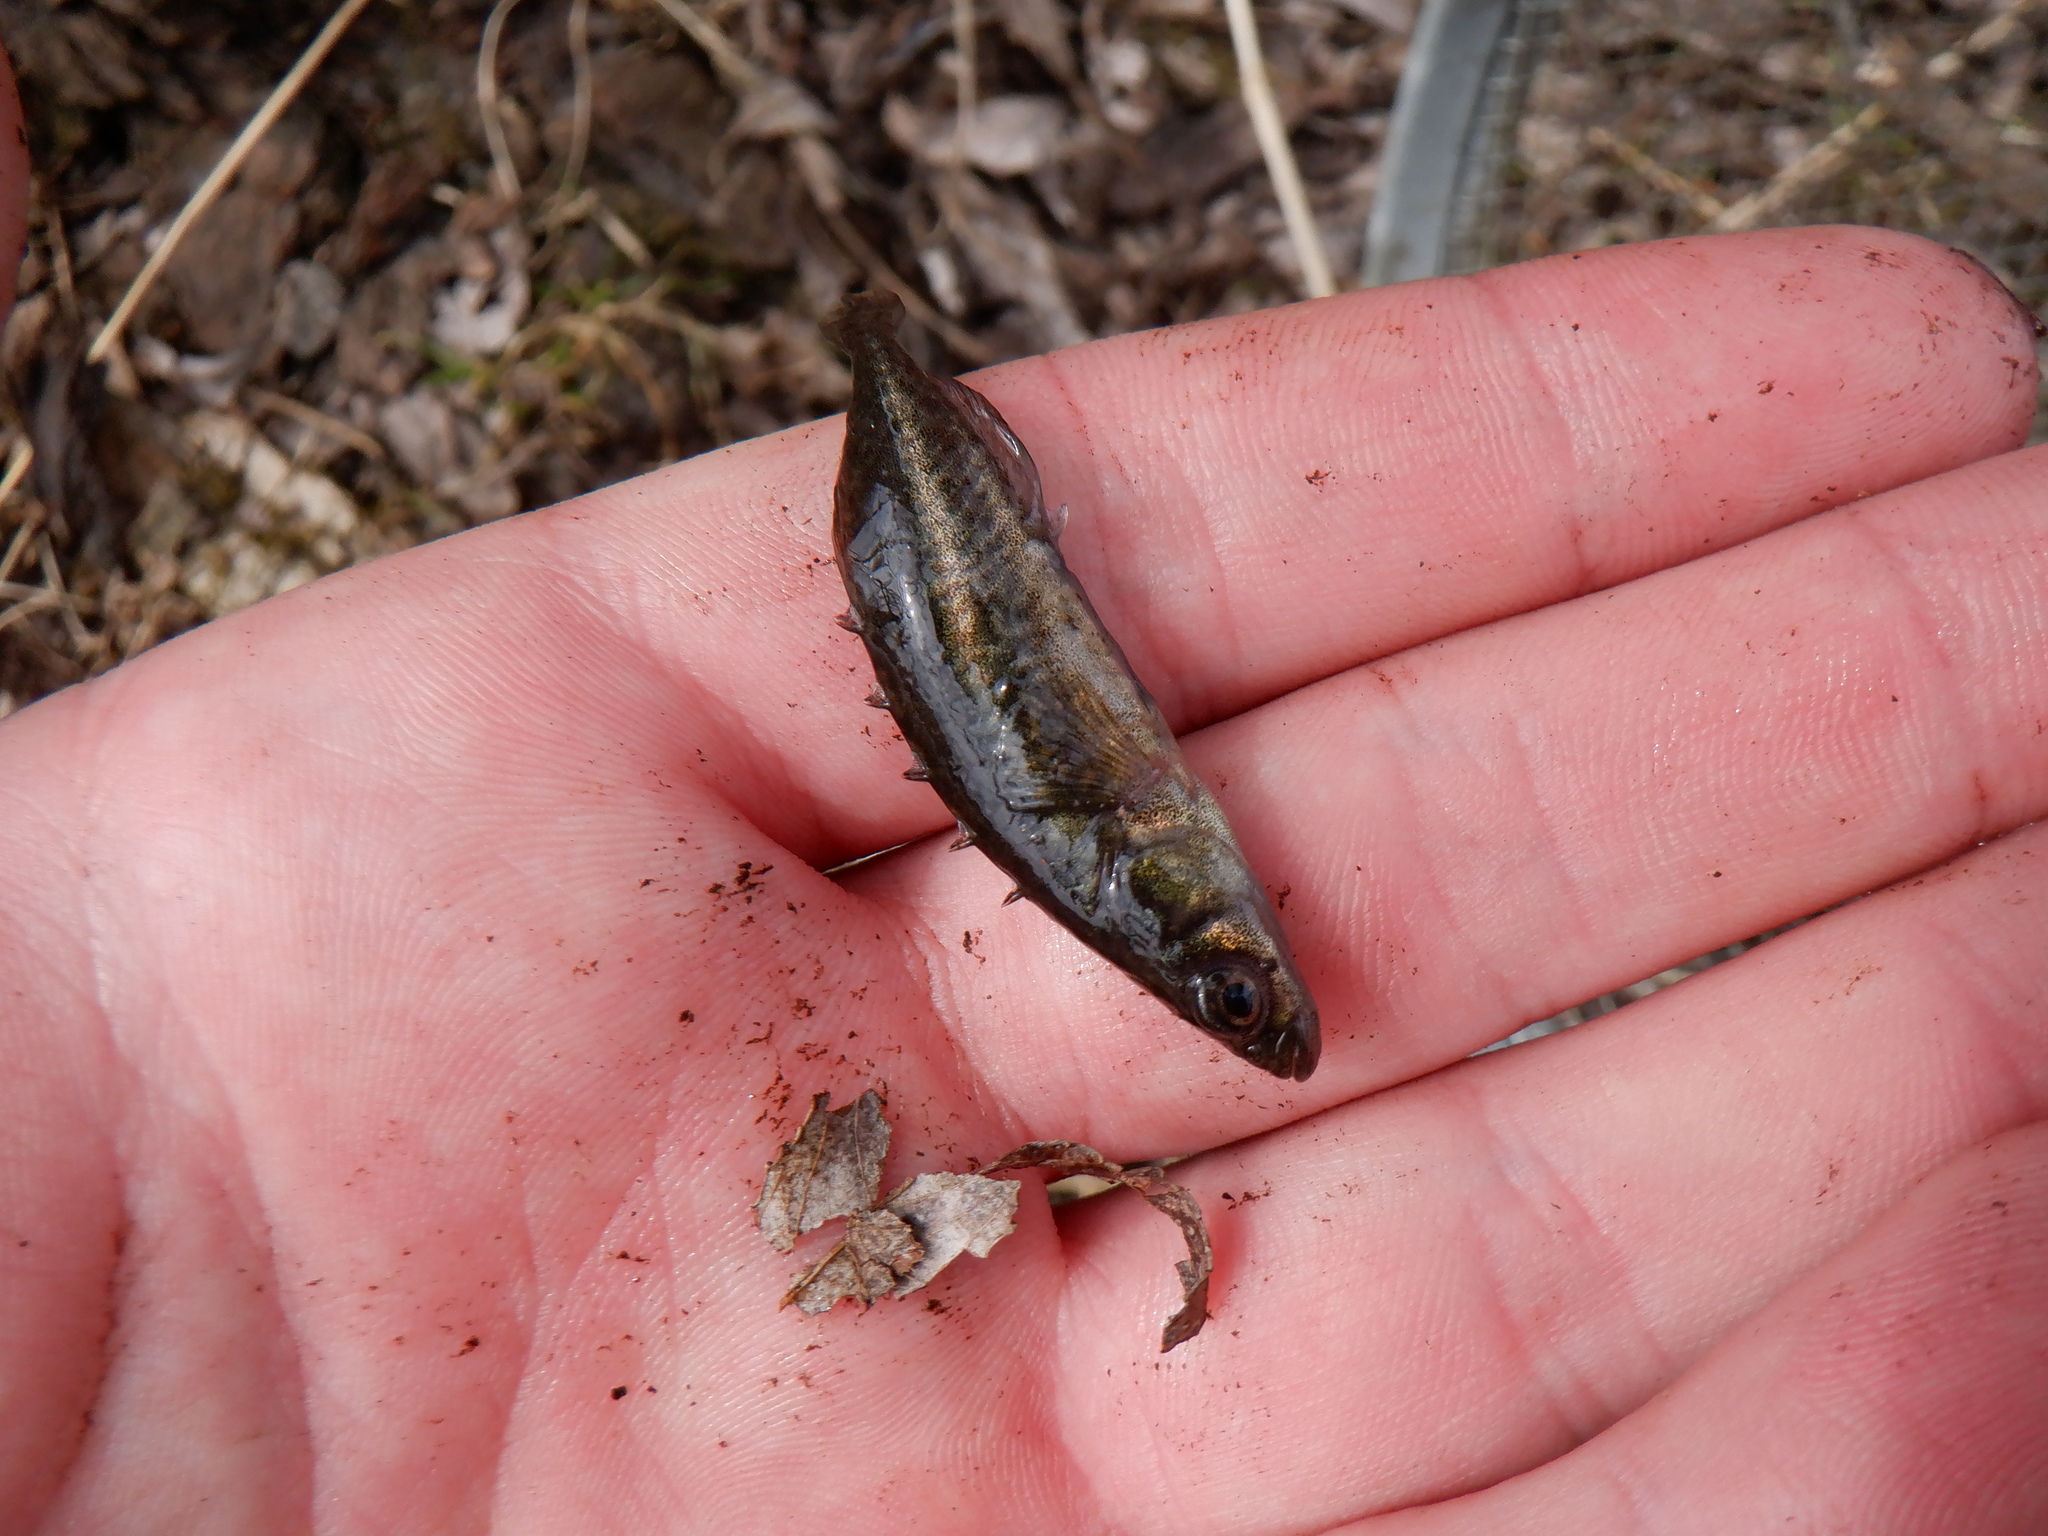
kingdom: Animalia
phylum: Chordata
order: Gasterosteiformes
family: Gasterosteidae
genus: Culaea
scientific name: Culaea inconstans
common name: Brook stickleback
